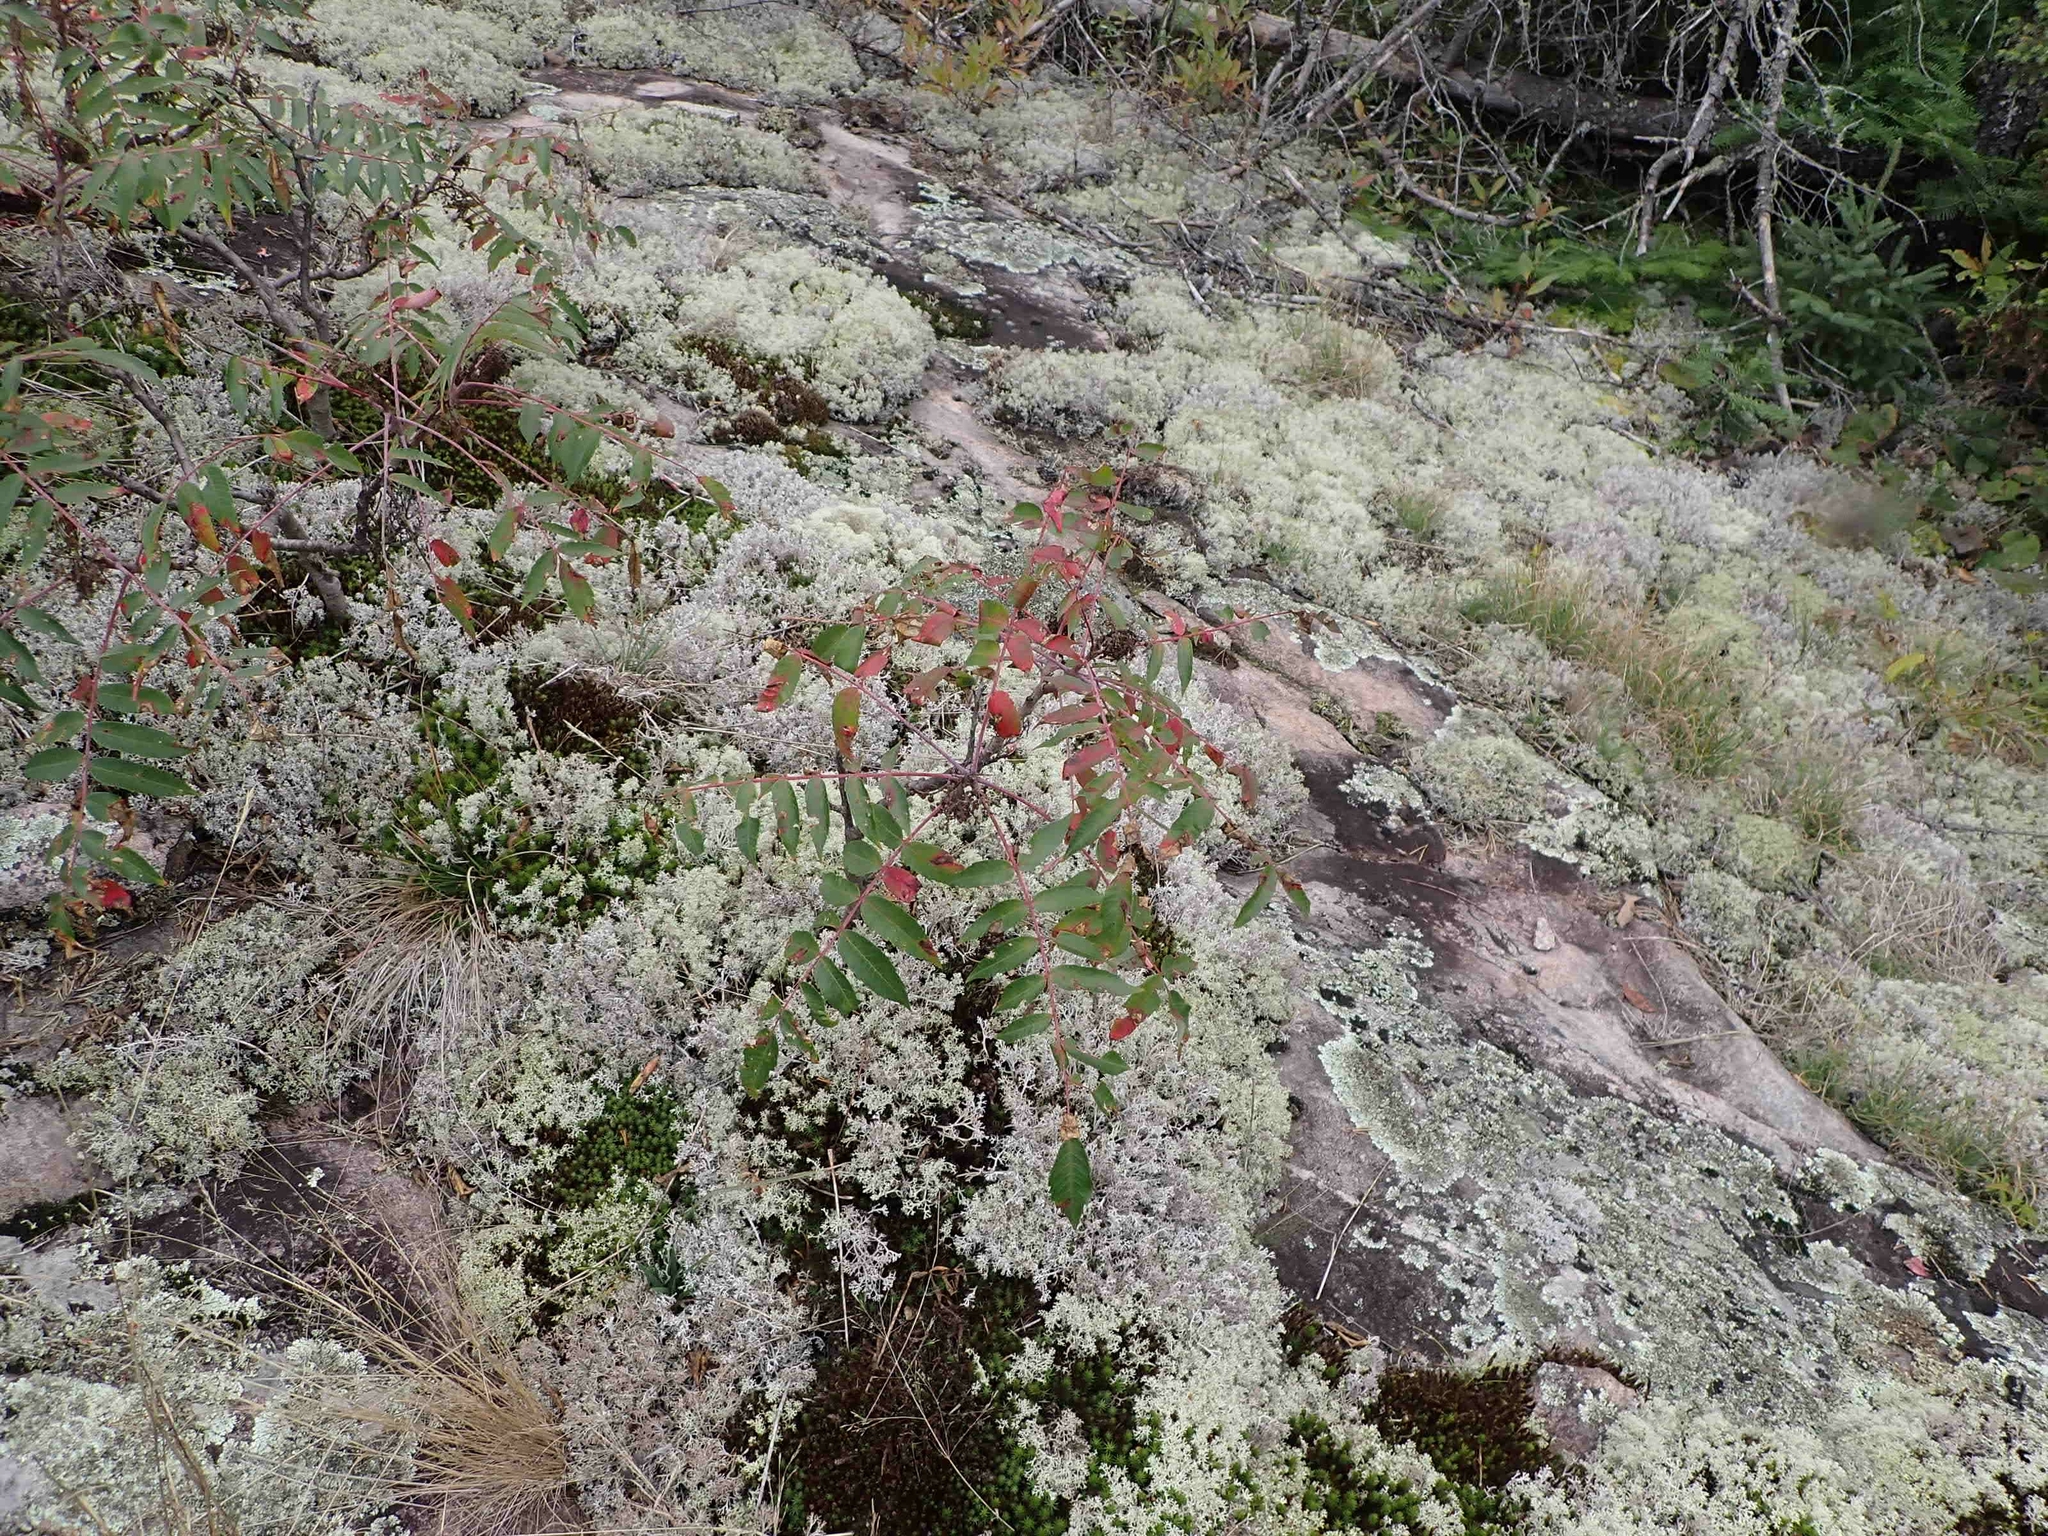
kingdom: Plantae
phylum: Tracheophyta
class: Magnoliopsida
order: Sapindales
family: Anacardiaceae
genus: Rhus
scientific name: Rhus glabra
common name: Scarlet sumac
